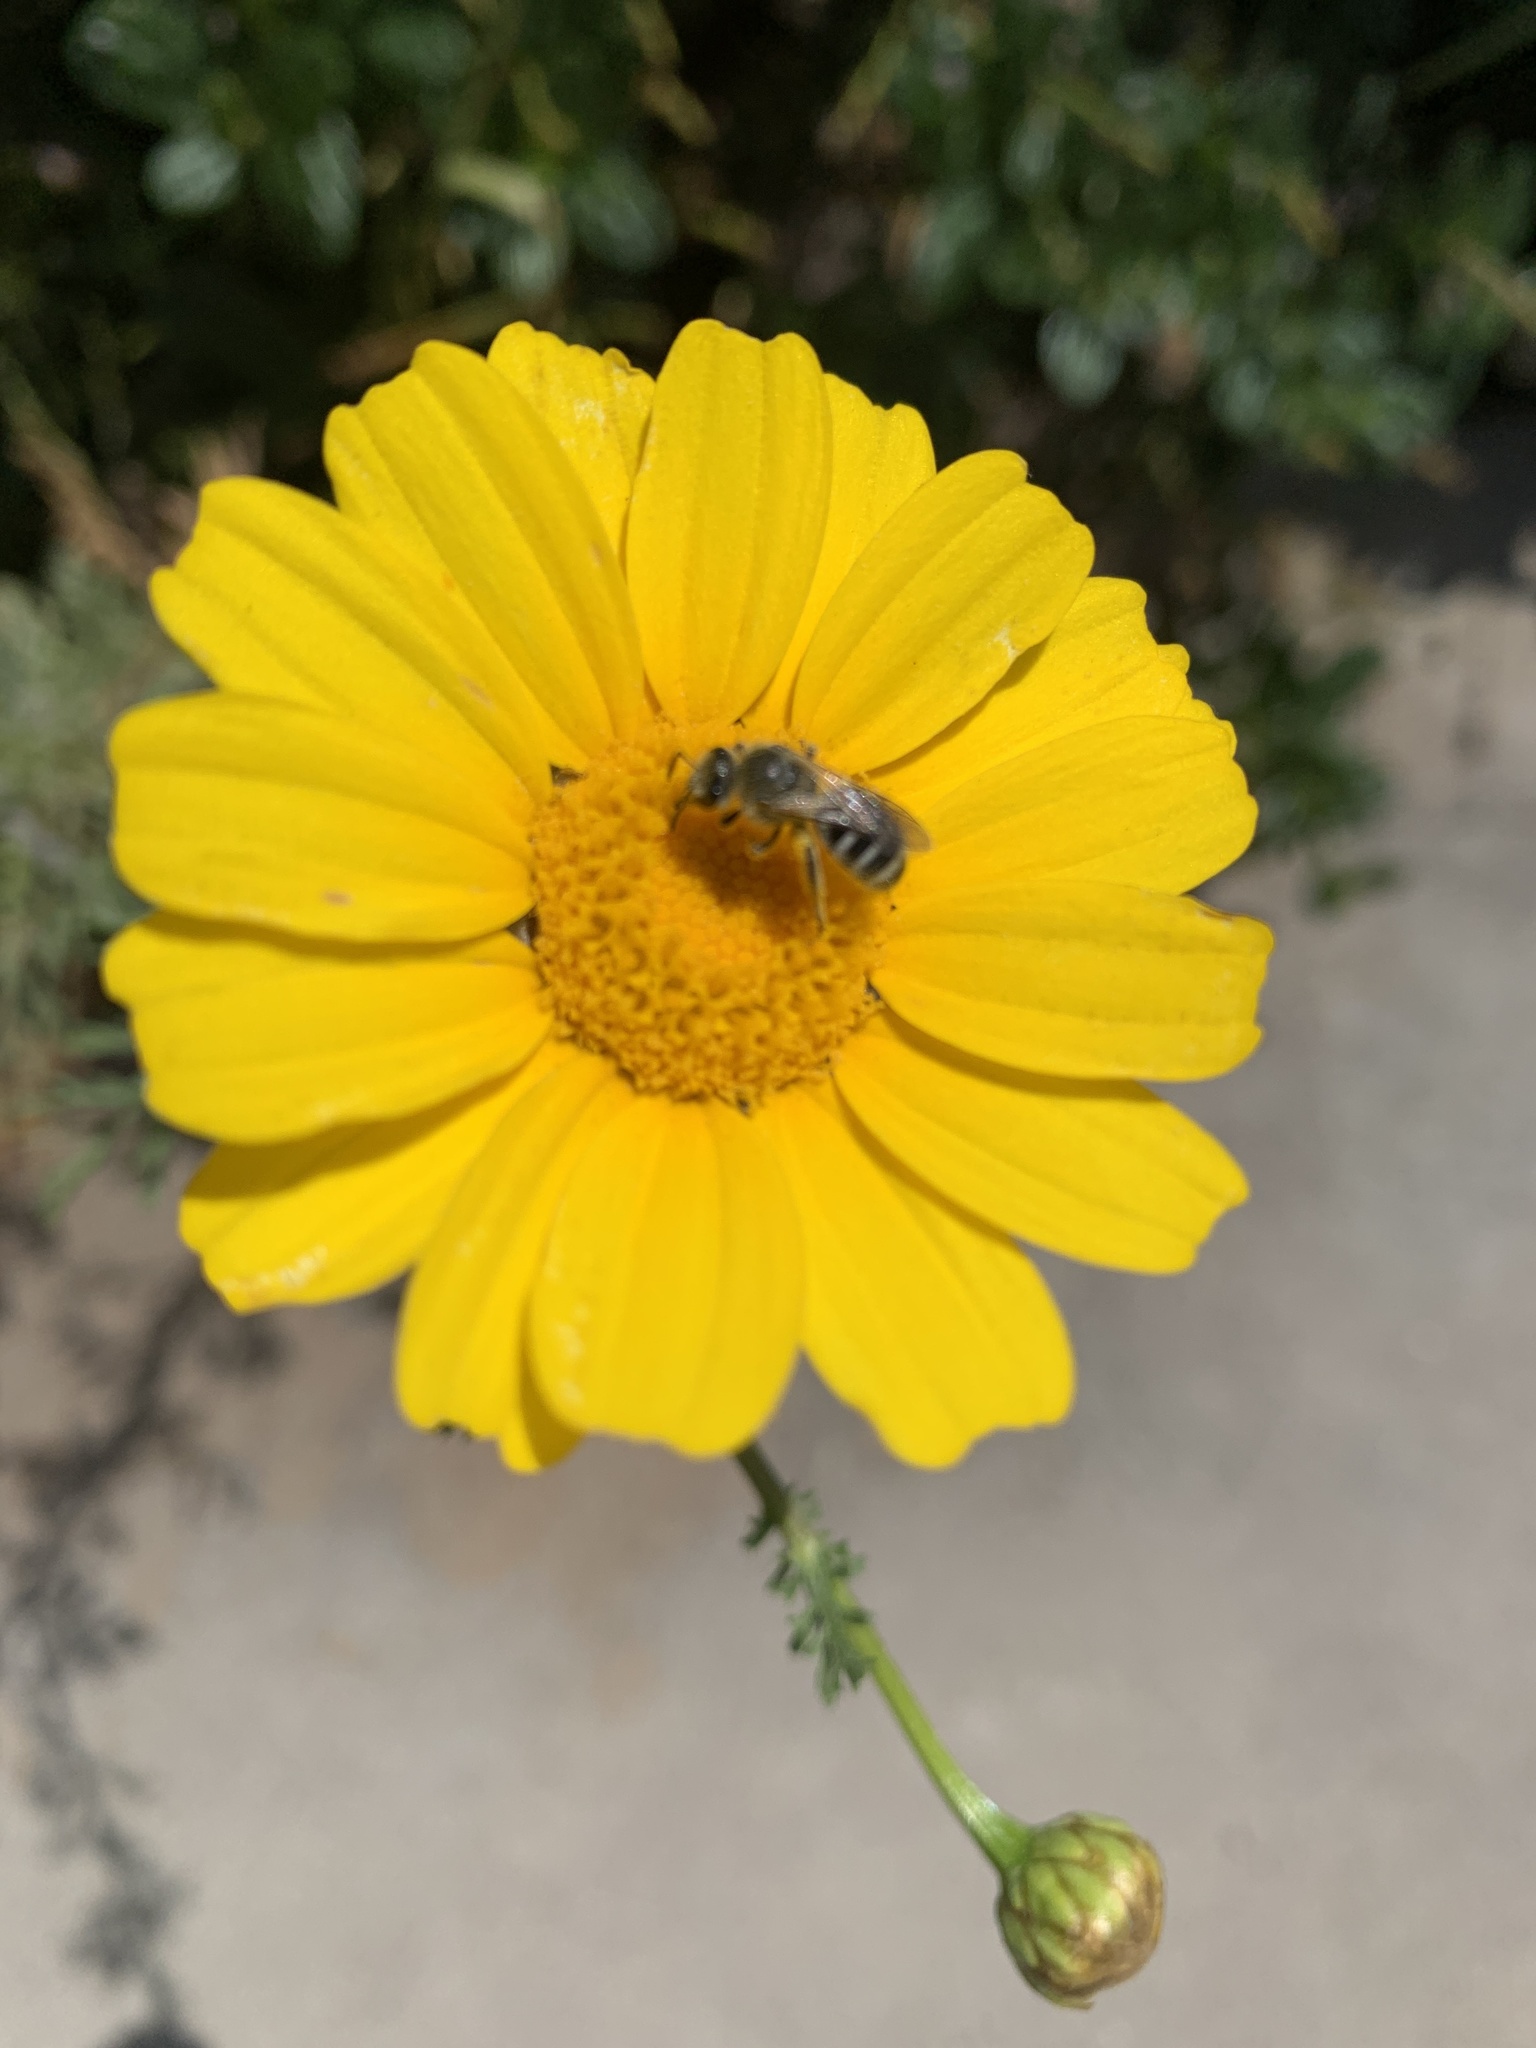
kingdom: Animalia
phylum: Arthropoda
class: Insecta
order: Hymenoptera
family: Halictidae
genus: Lasioglossum
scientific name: Lasioglossum sisymbrii
